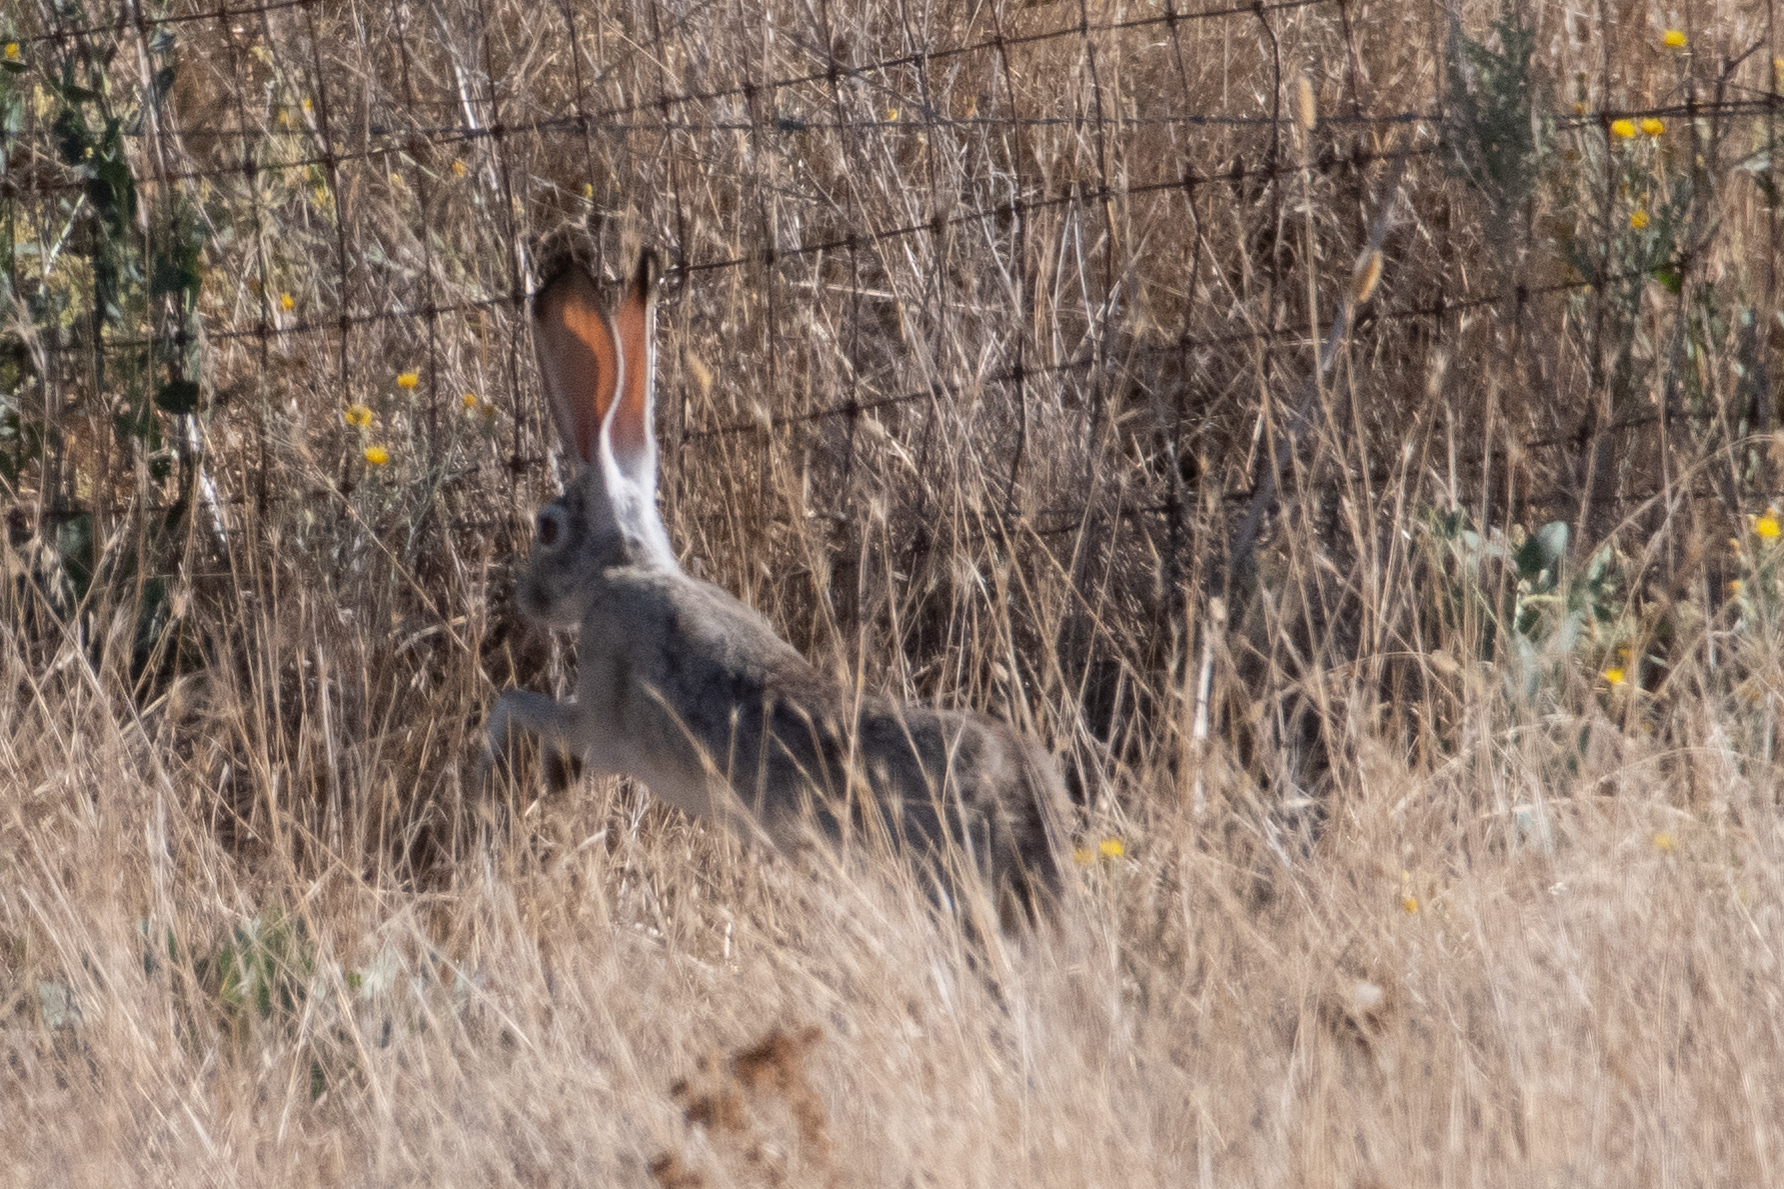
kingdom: Animalia
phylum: Chordata
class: Mammalia
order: Lagomorpha
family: Leporidae
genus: Lepus
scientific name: Lepus californicus
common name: Black-tailed jackrabbit
